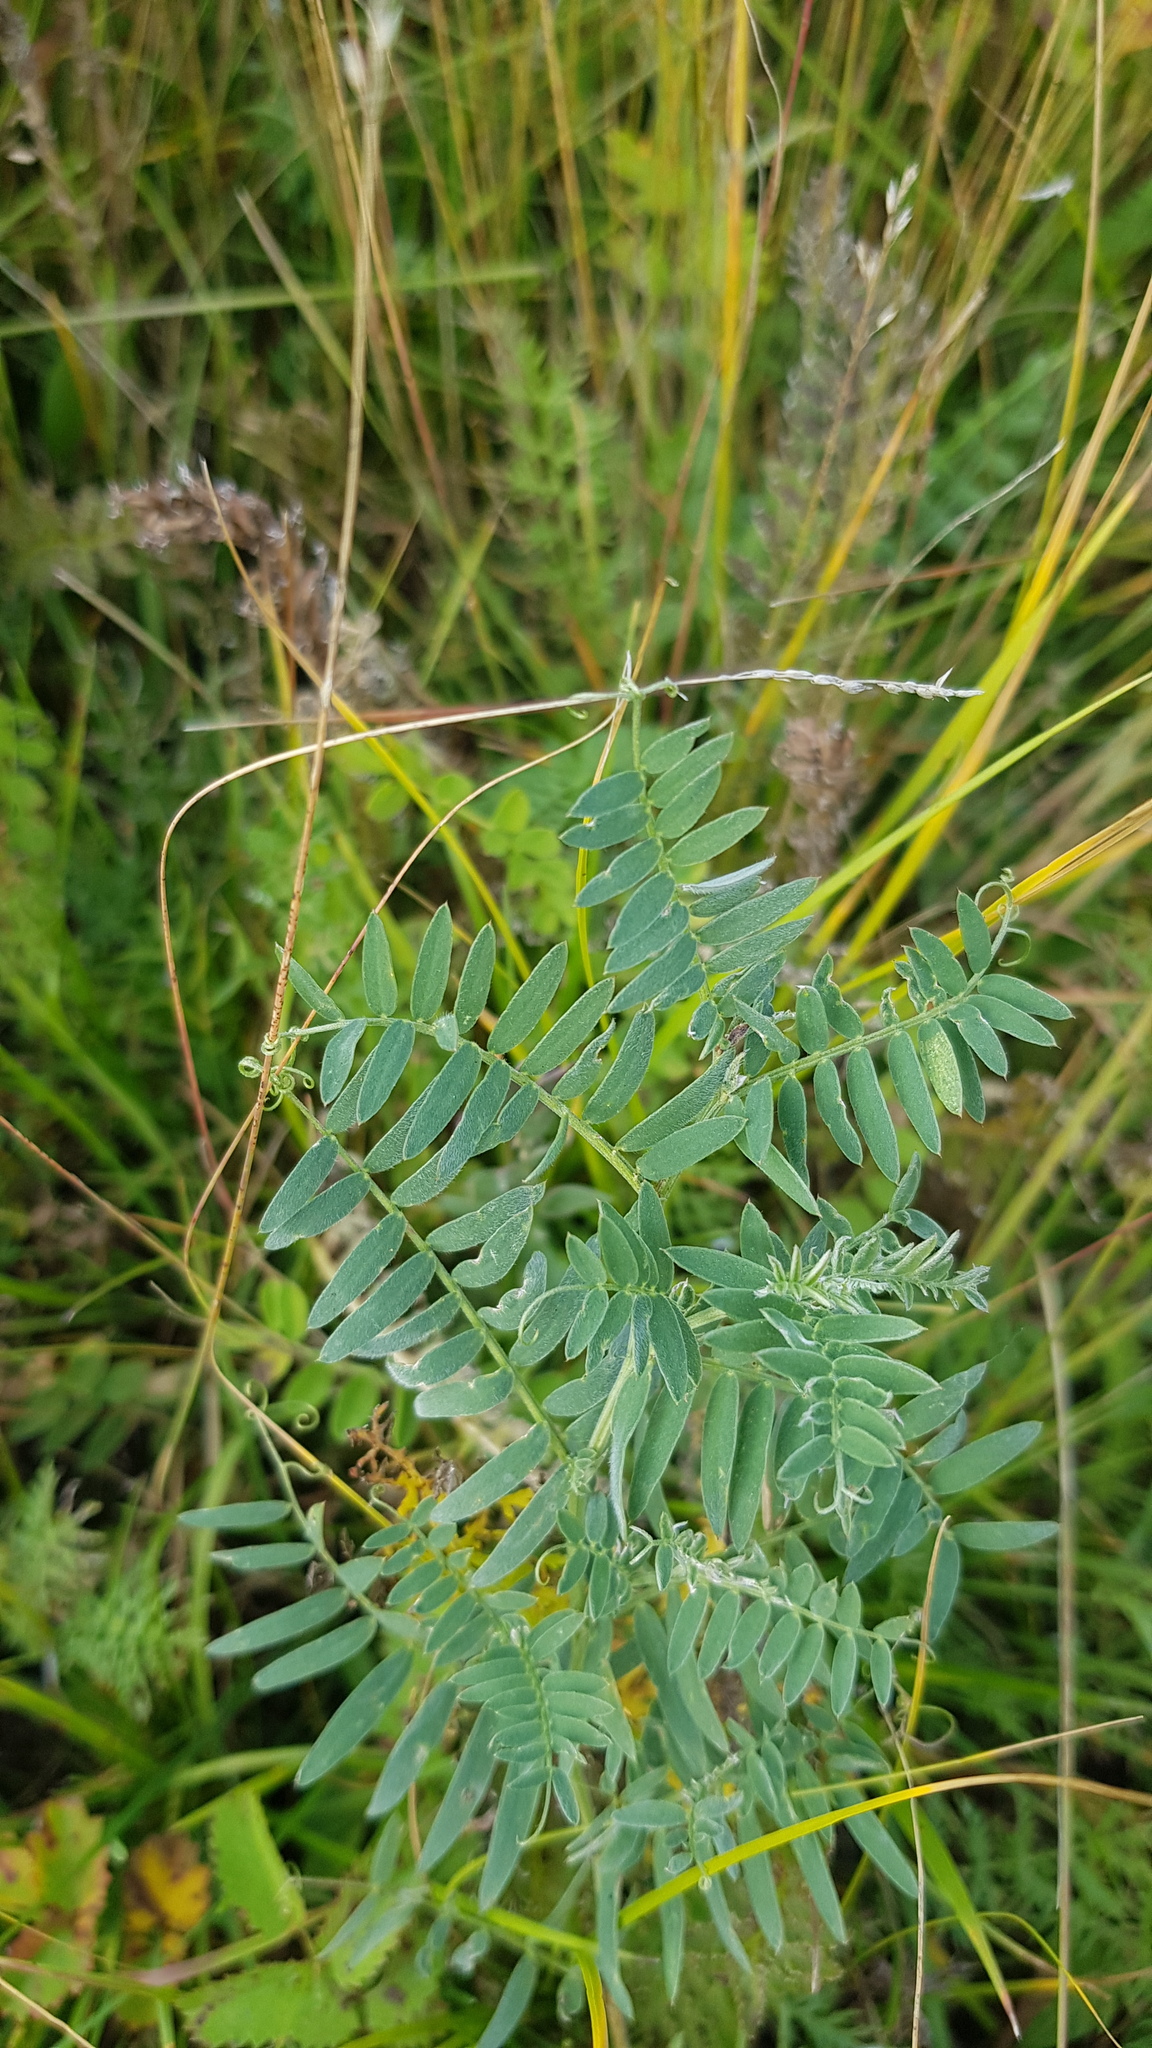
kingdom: Plantae
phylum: Tracheophyta
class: Magnoliopsida
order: Fabales
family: Fabaceae
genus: Vicia
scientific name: Vicia cracca
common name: Bird vetch
